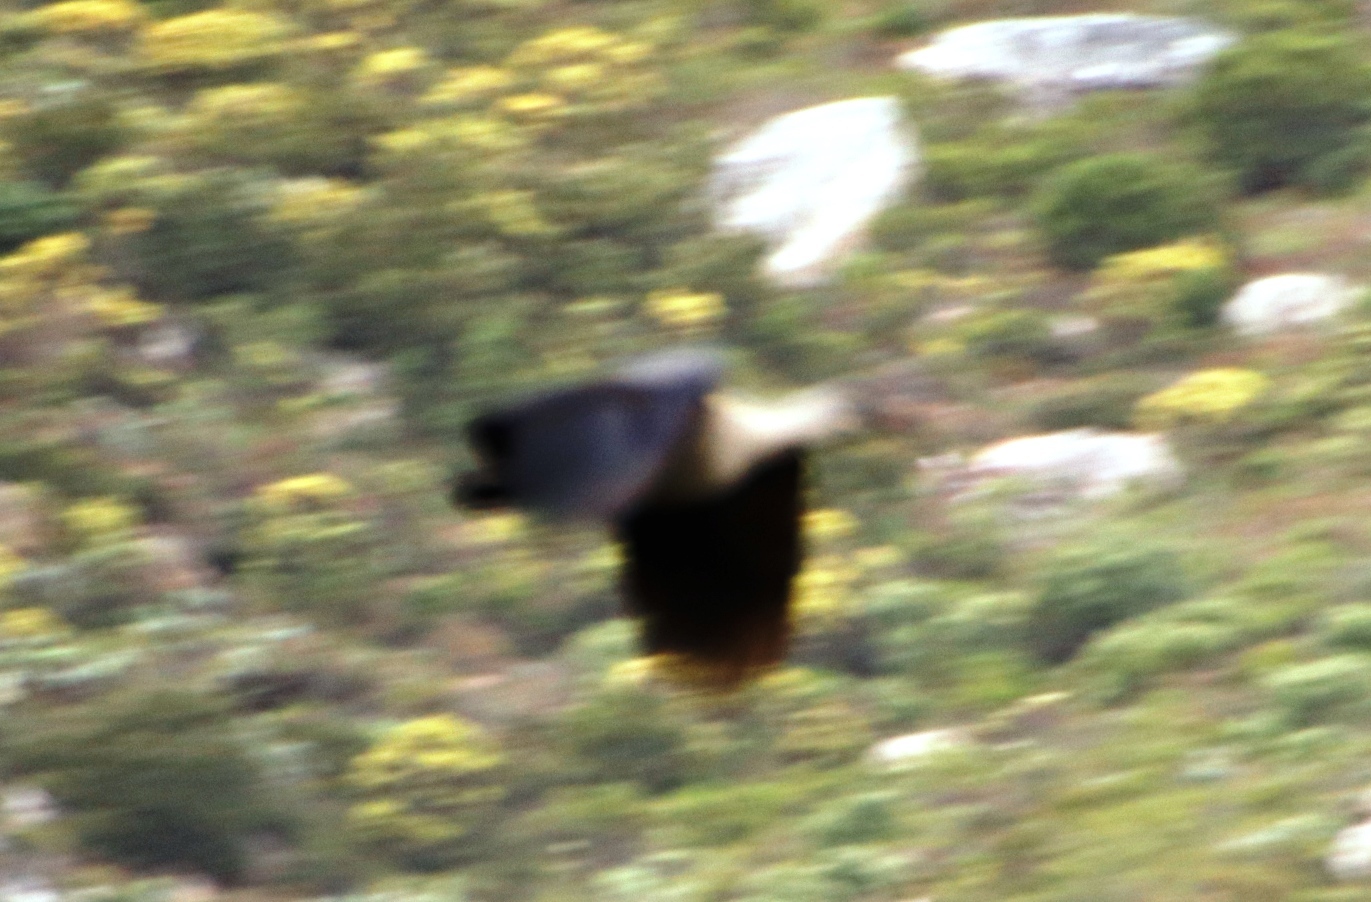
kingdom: Animalia
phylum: Chordata
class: Aves
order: Pelecaniformes
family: Threskiornithidae
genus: Bostrychia
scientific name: Bostrychia hagedash
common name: Hadada ibis
